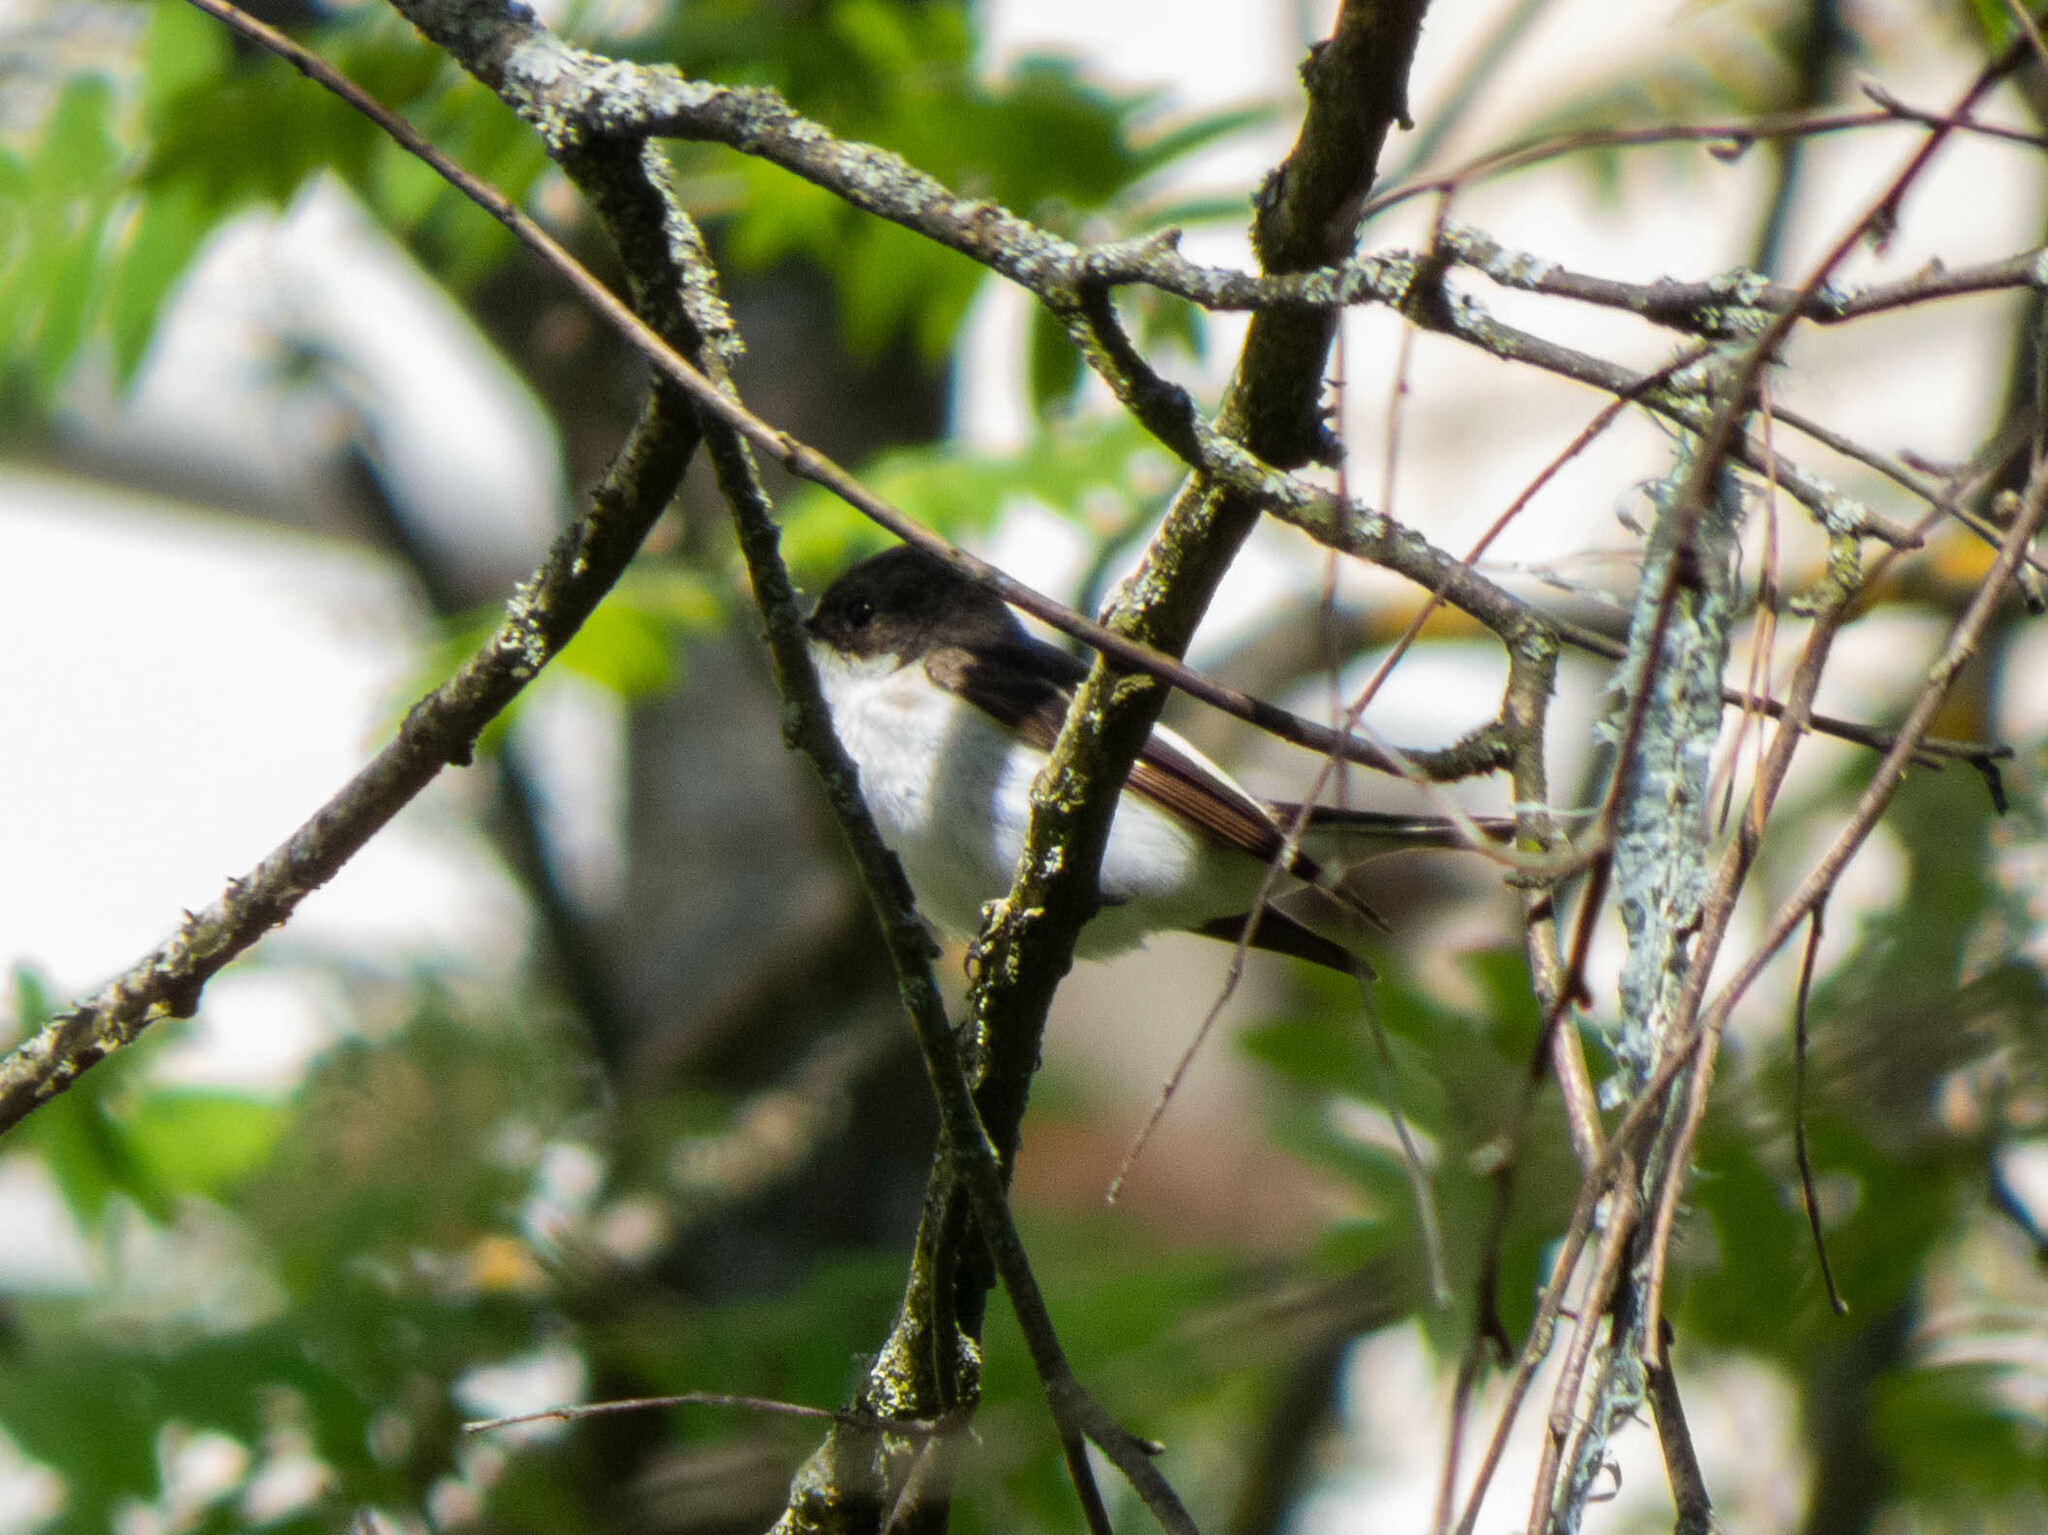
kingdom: Animalia
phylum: Chordata
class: Aves
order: Passeriformes
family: Muscicapidae
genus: Ficedula
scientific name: Ficedula hypoleuca
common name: European pied flycatcher
